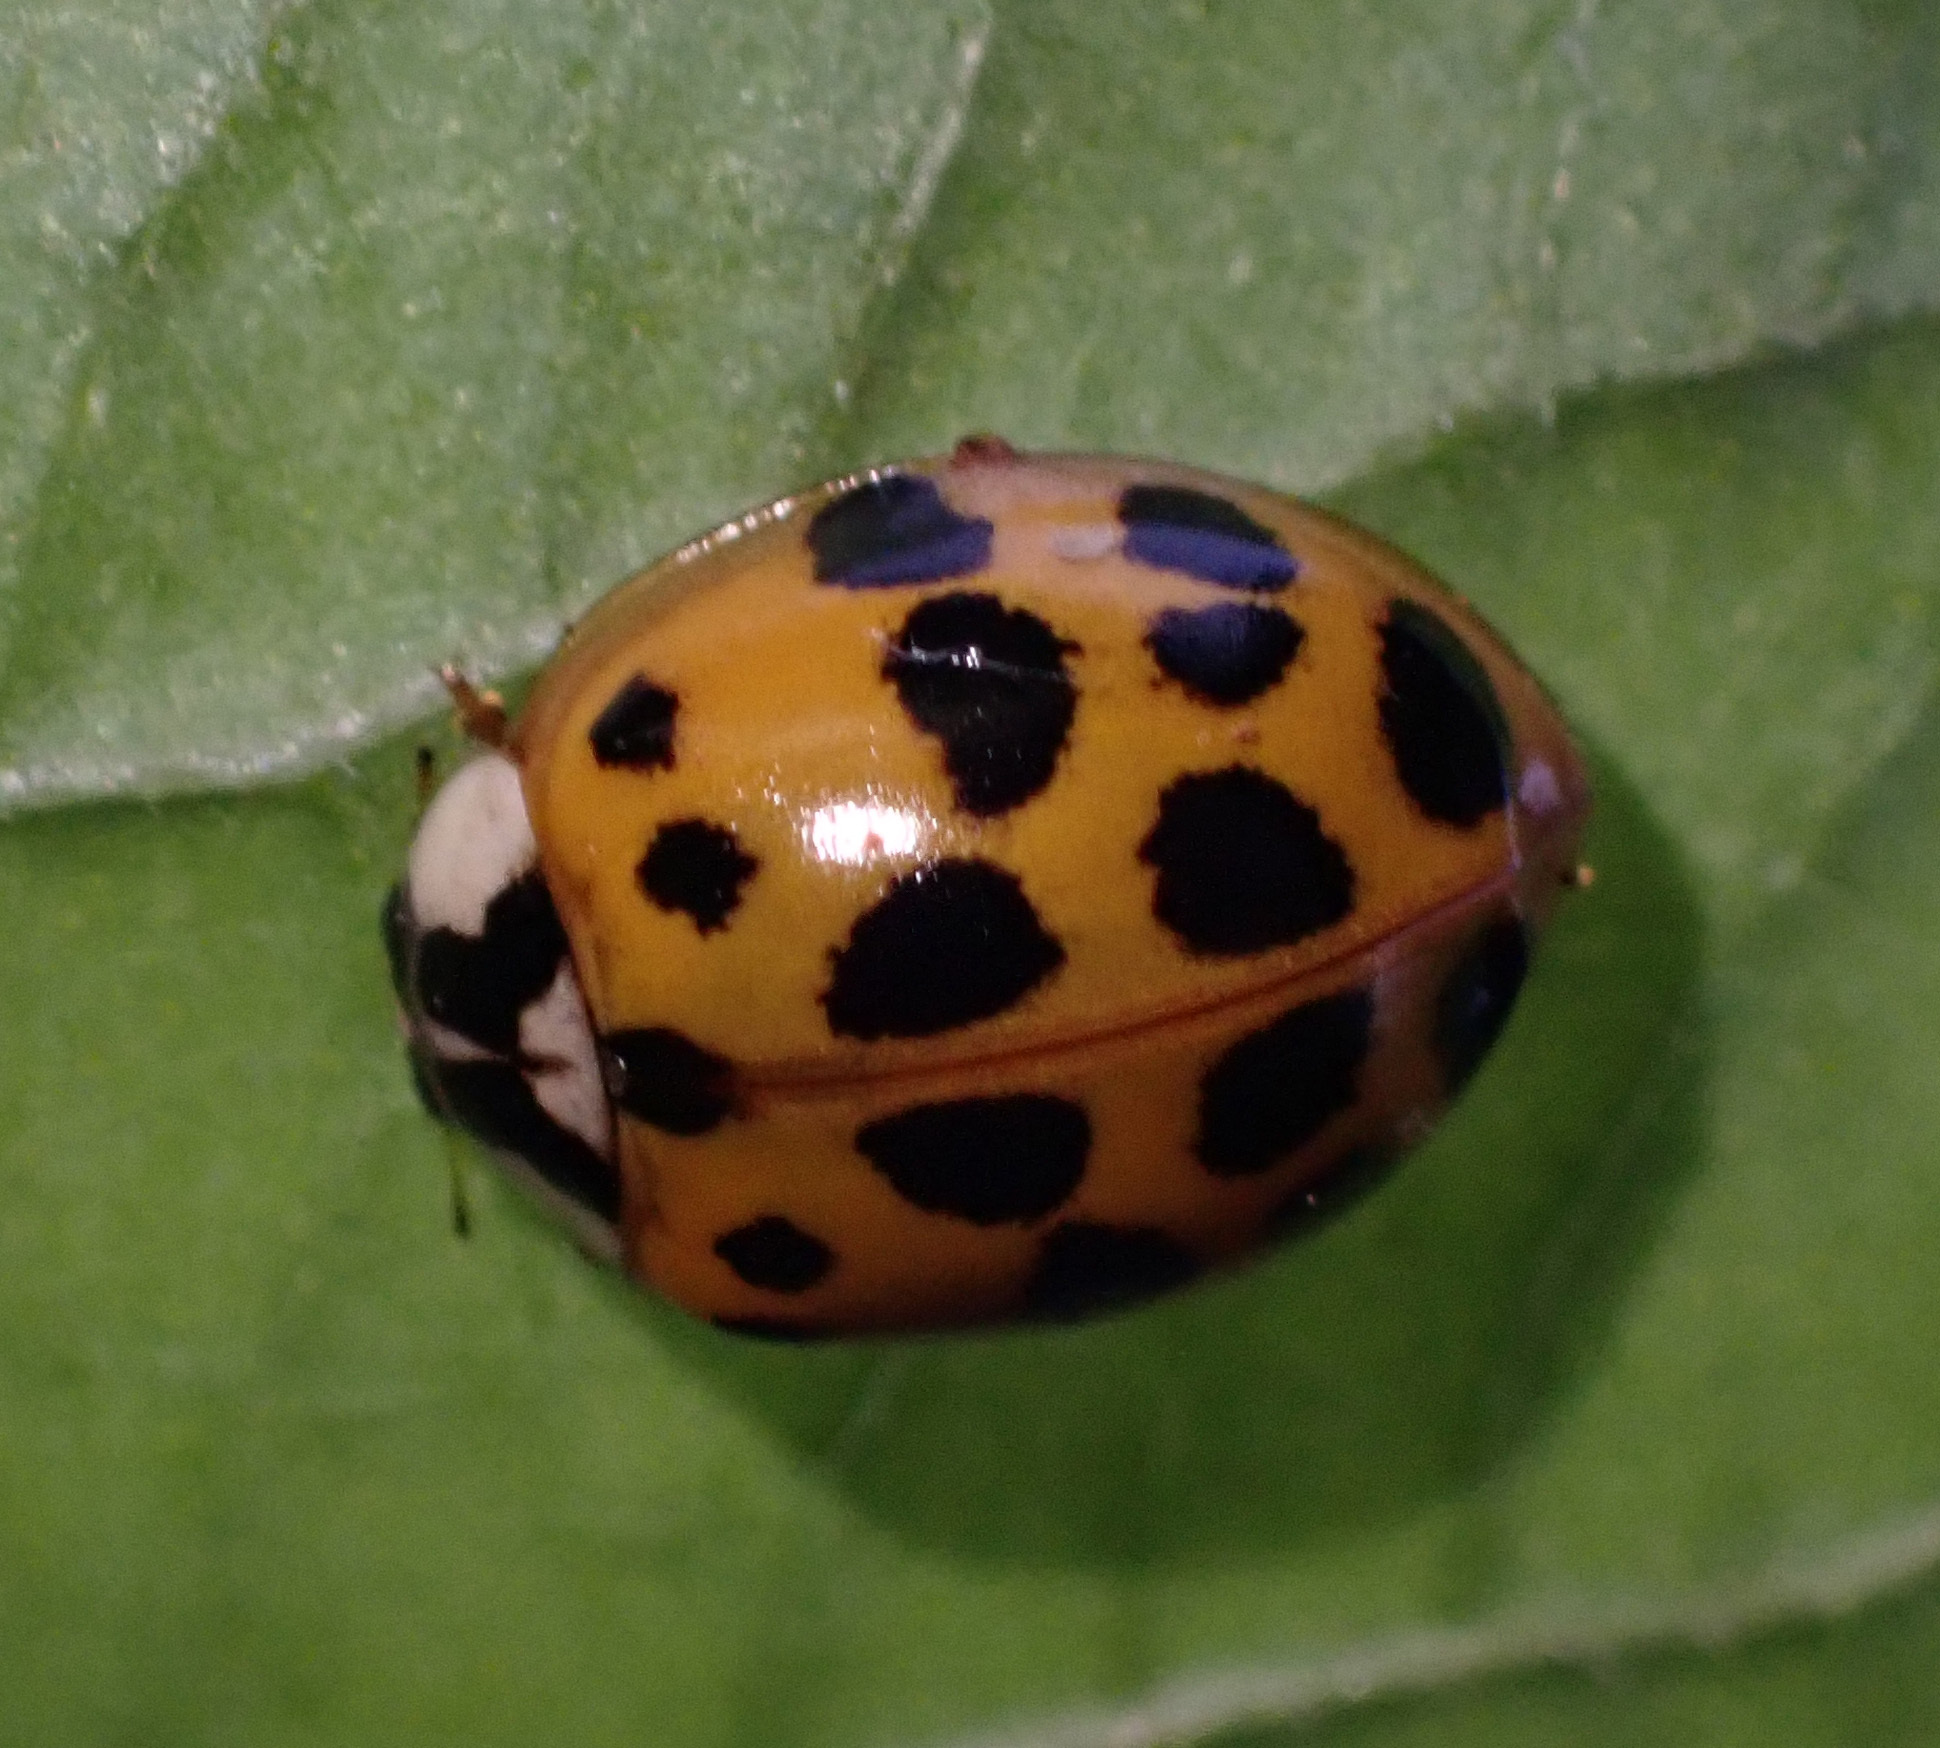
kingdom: Animalia
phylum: Arthropoda
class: Insecta
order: Coleoptera
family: Coccinellidae
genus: Harmonia
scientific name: Harmonia axyridis
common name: Harlequin ladybird
